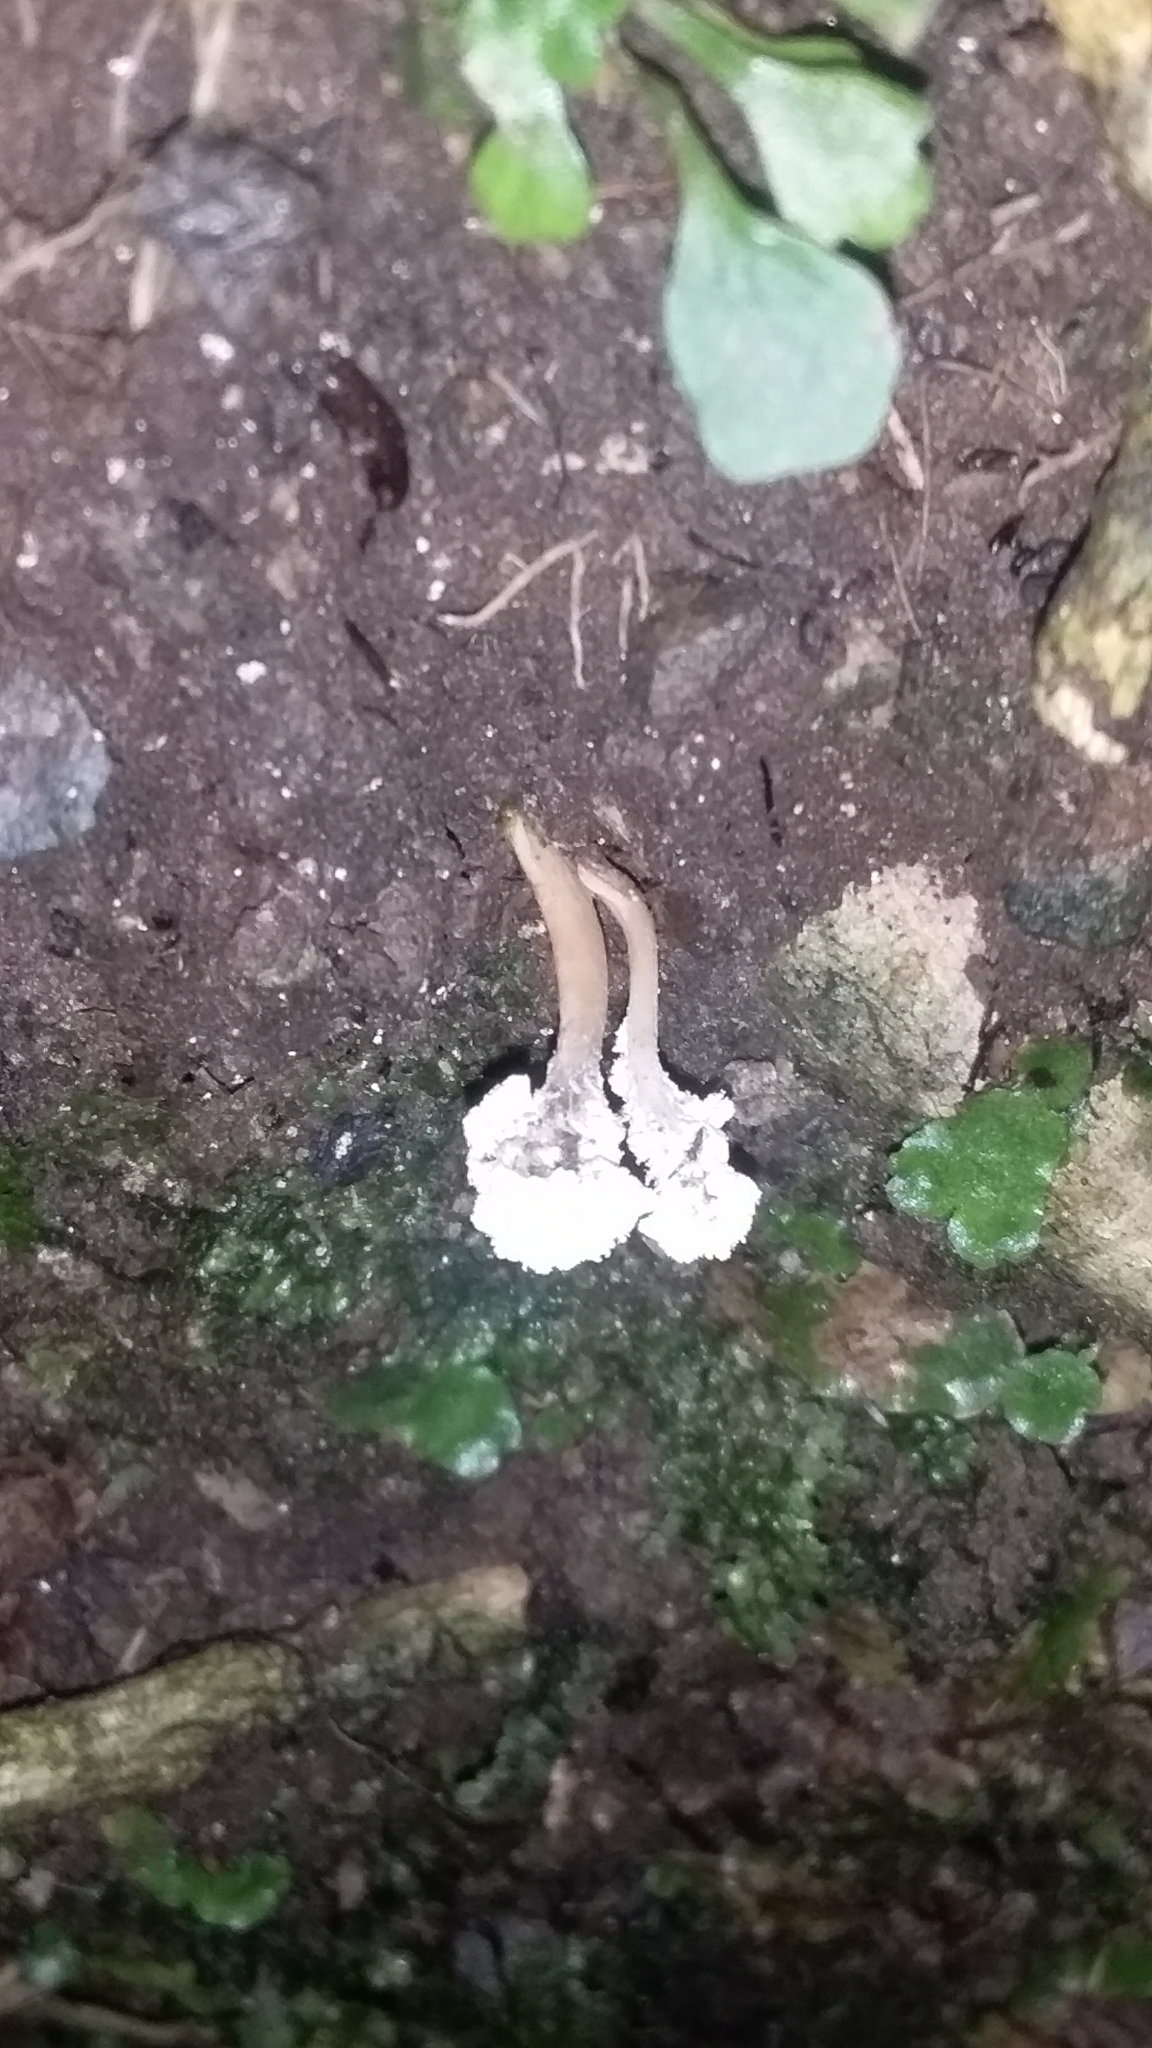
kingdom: Fungi
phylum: Ascomycota
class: Sordariomycetes
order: Hypocreales
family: Cordycipitaceae
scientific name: Cordycipitaceae
